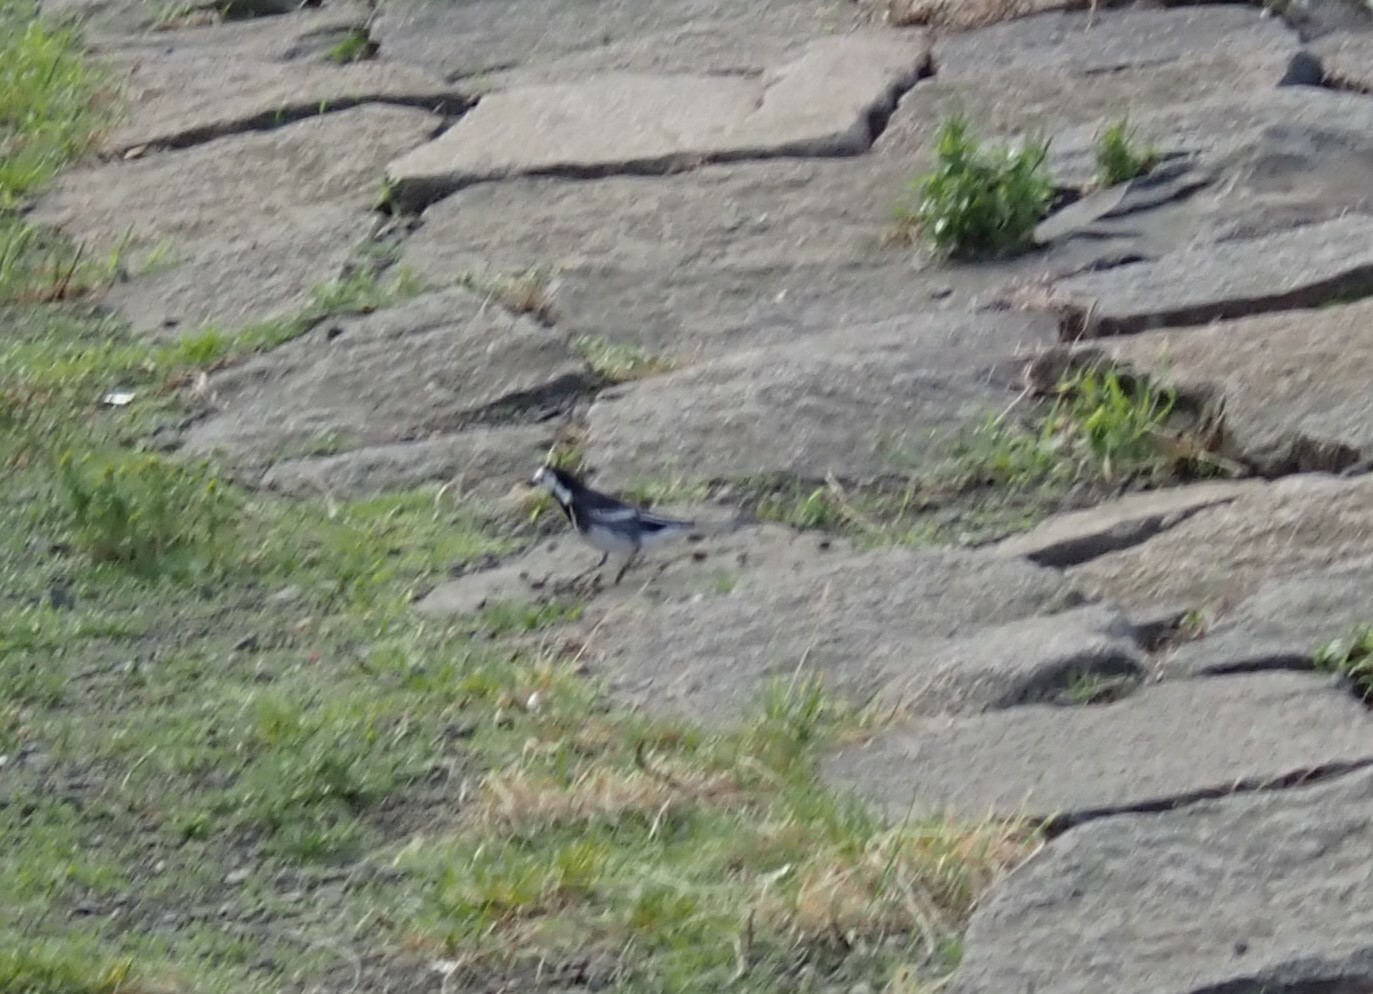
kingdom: Animalia
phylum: Chordata
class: Aves
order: Passeriformes
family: Motacillidae
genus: Motacilla
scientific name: Motacilla alba
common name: White wagtail
